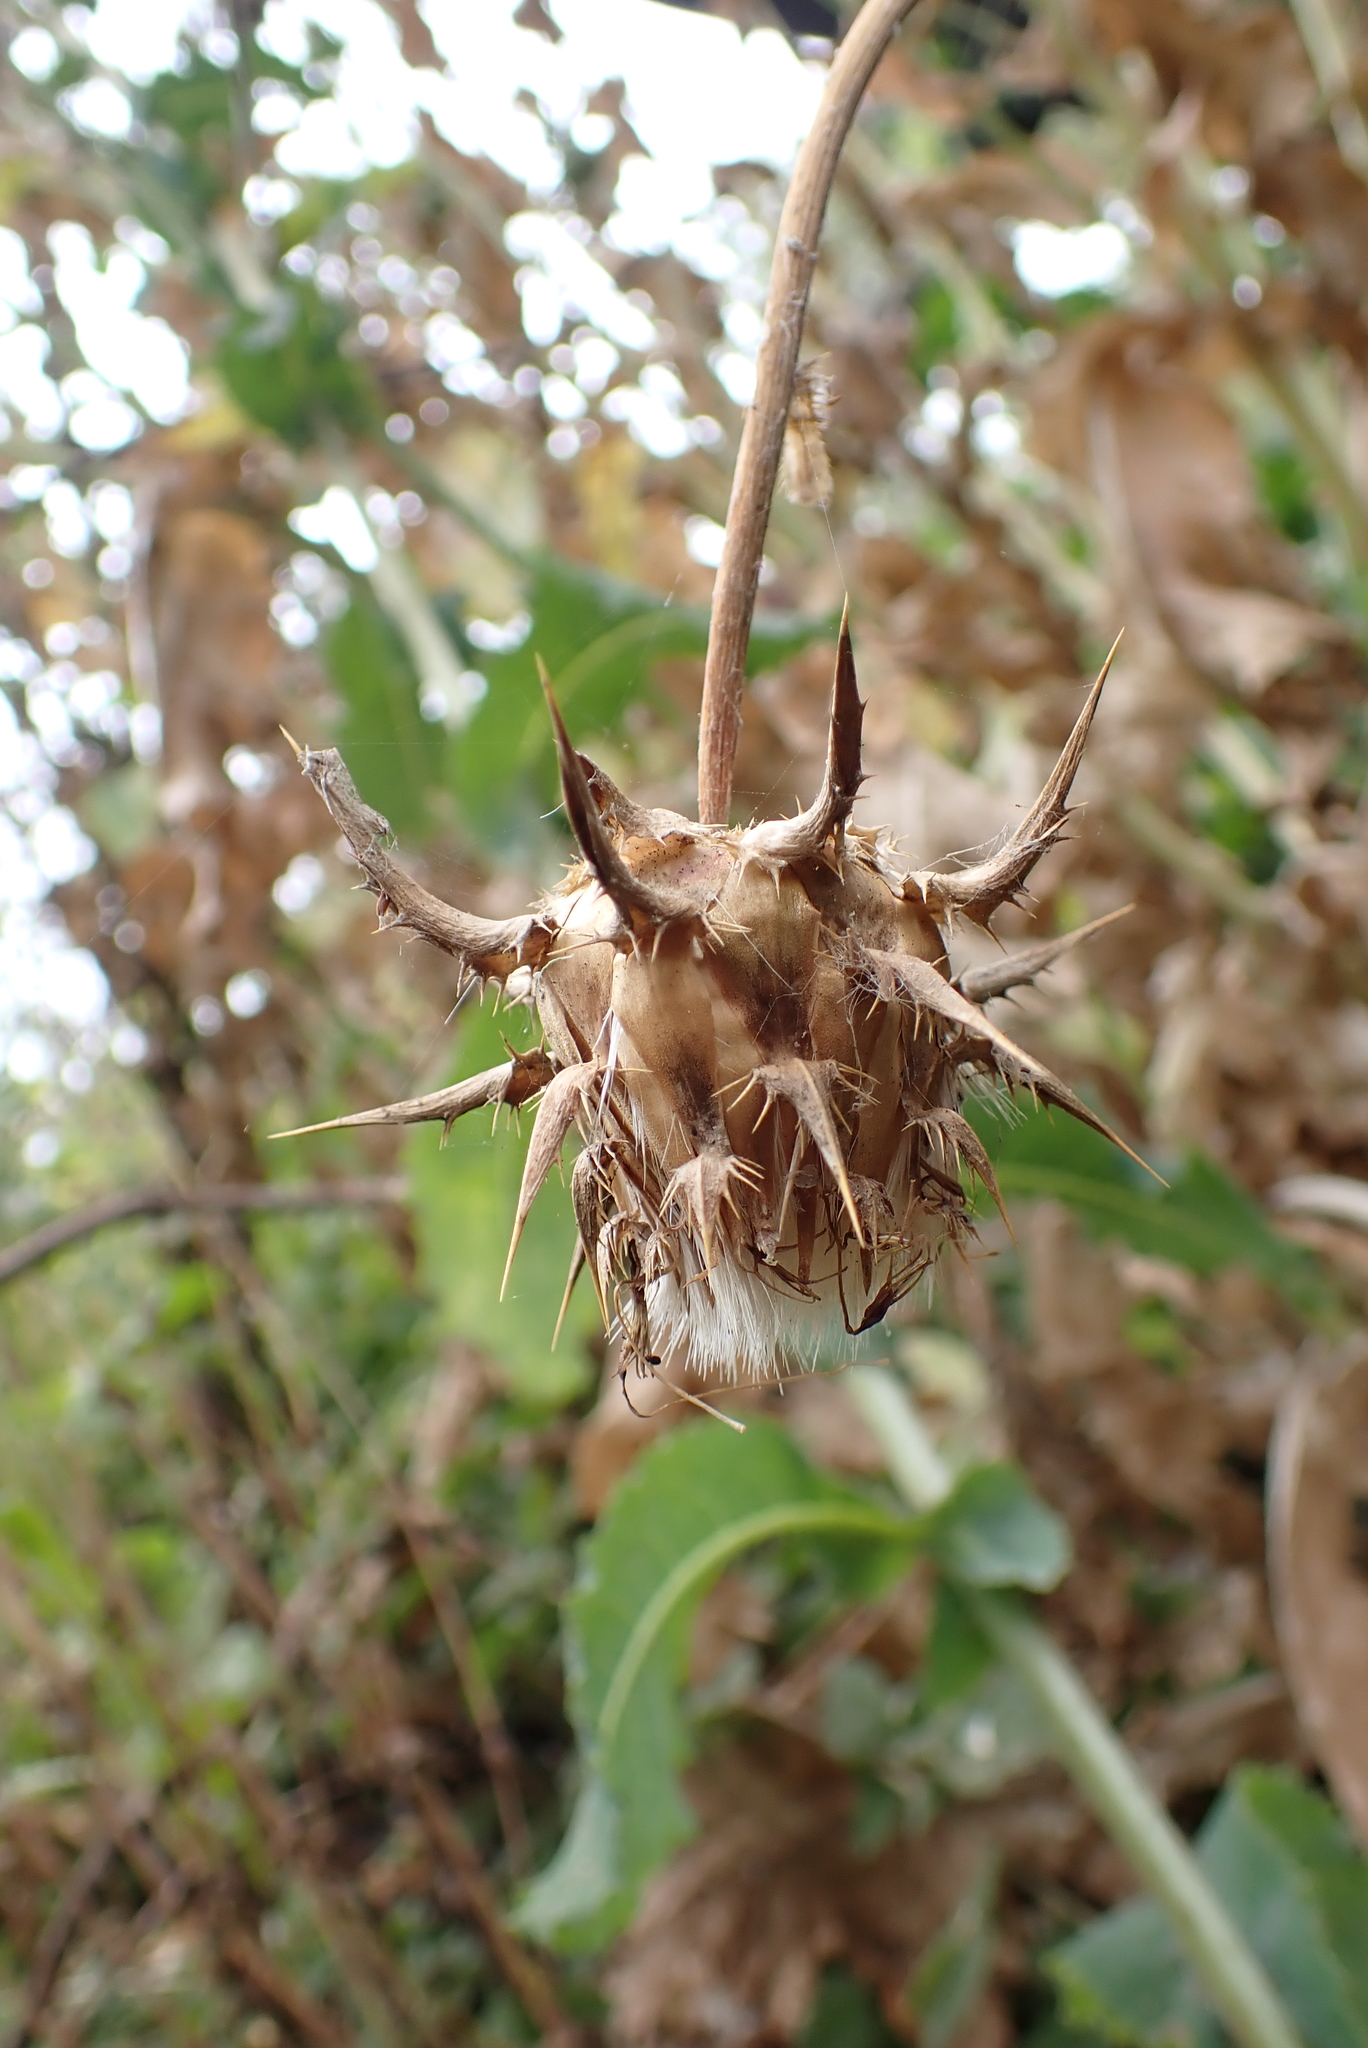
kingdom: Plantae
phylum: Tracheophyta
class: Magnoliopsida
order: Asterales
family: Asteraceae
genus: Silybum
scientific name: Silybum marianum
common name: Milk thistle
